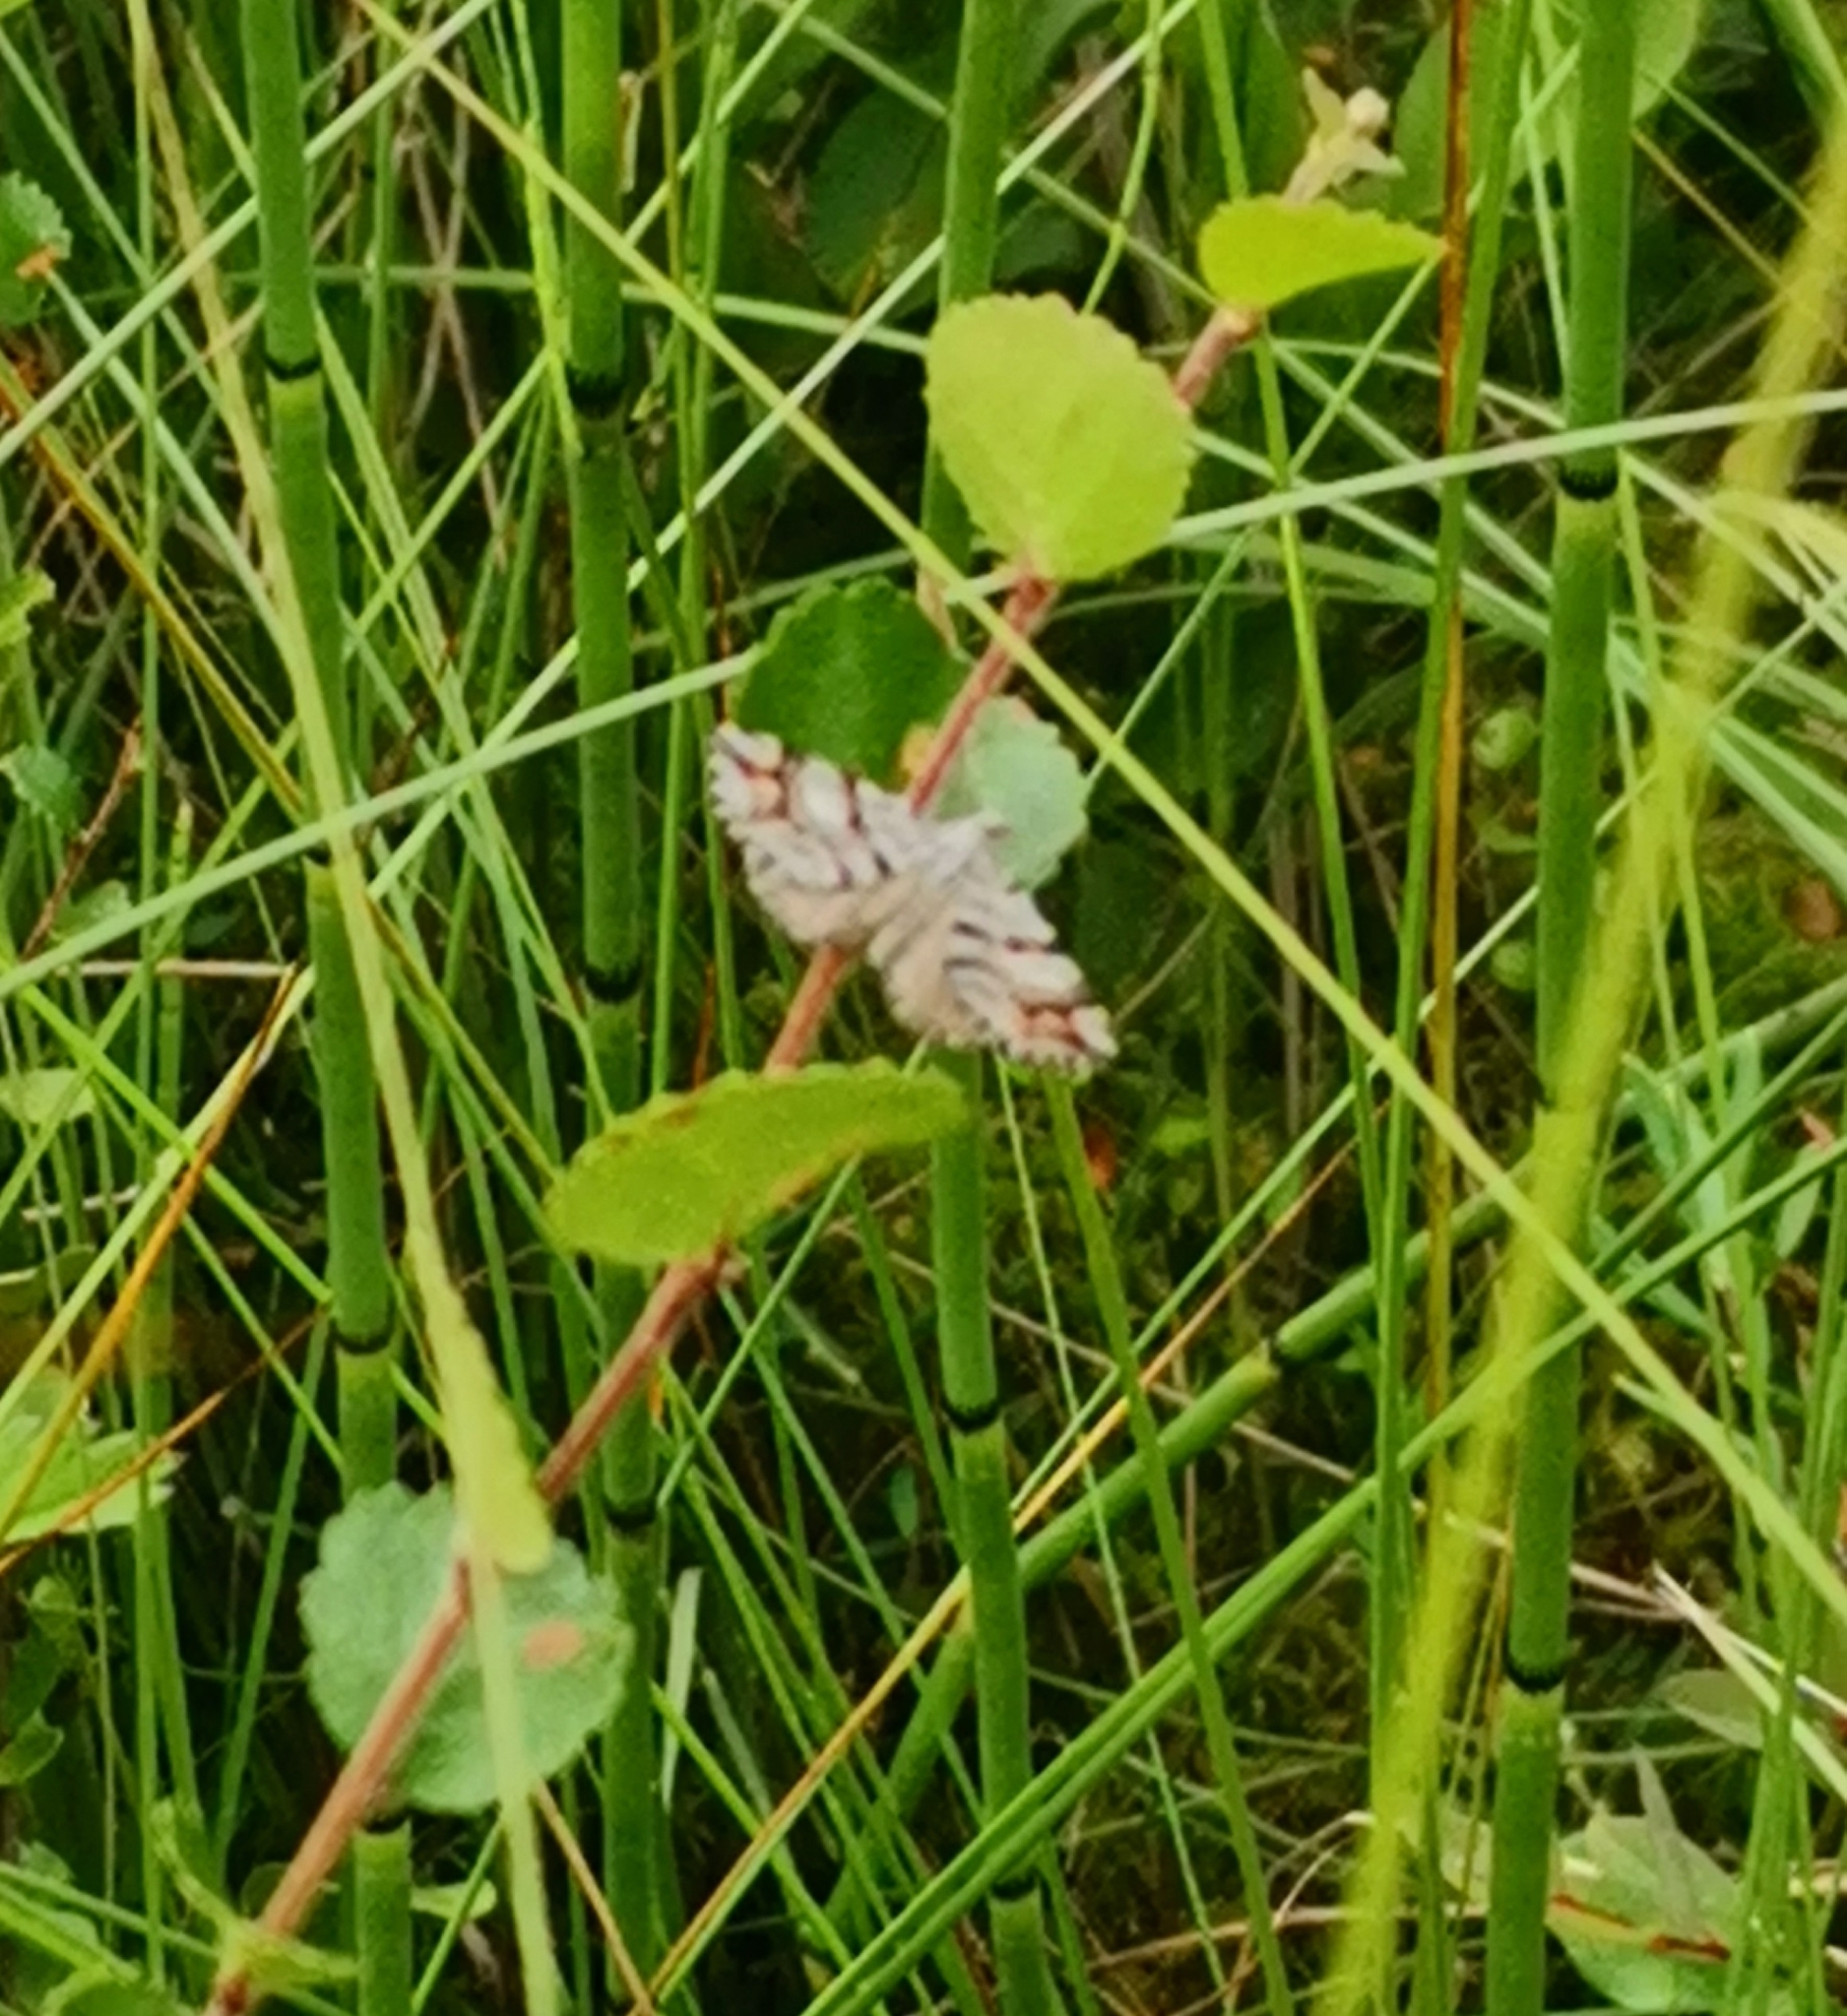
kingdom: Animalia
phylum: Arthropoda
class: Insecta
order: Lepidoptera
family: Geometridae
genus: Carsia
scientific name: Carsia sororiata
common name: Manchester treble-bar
